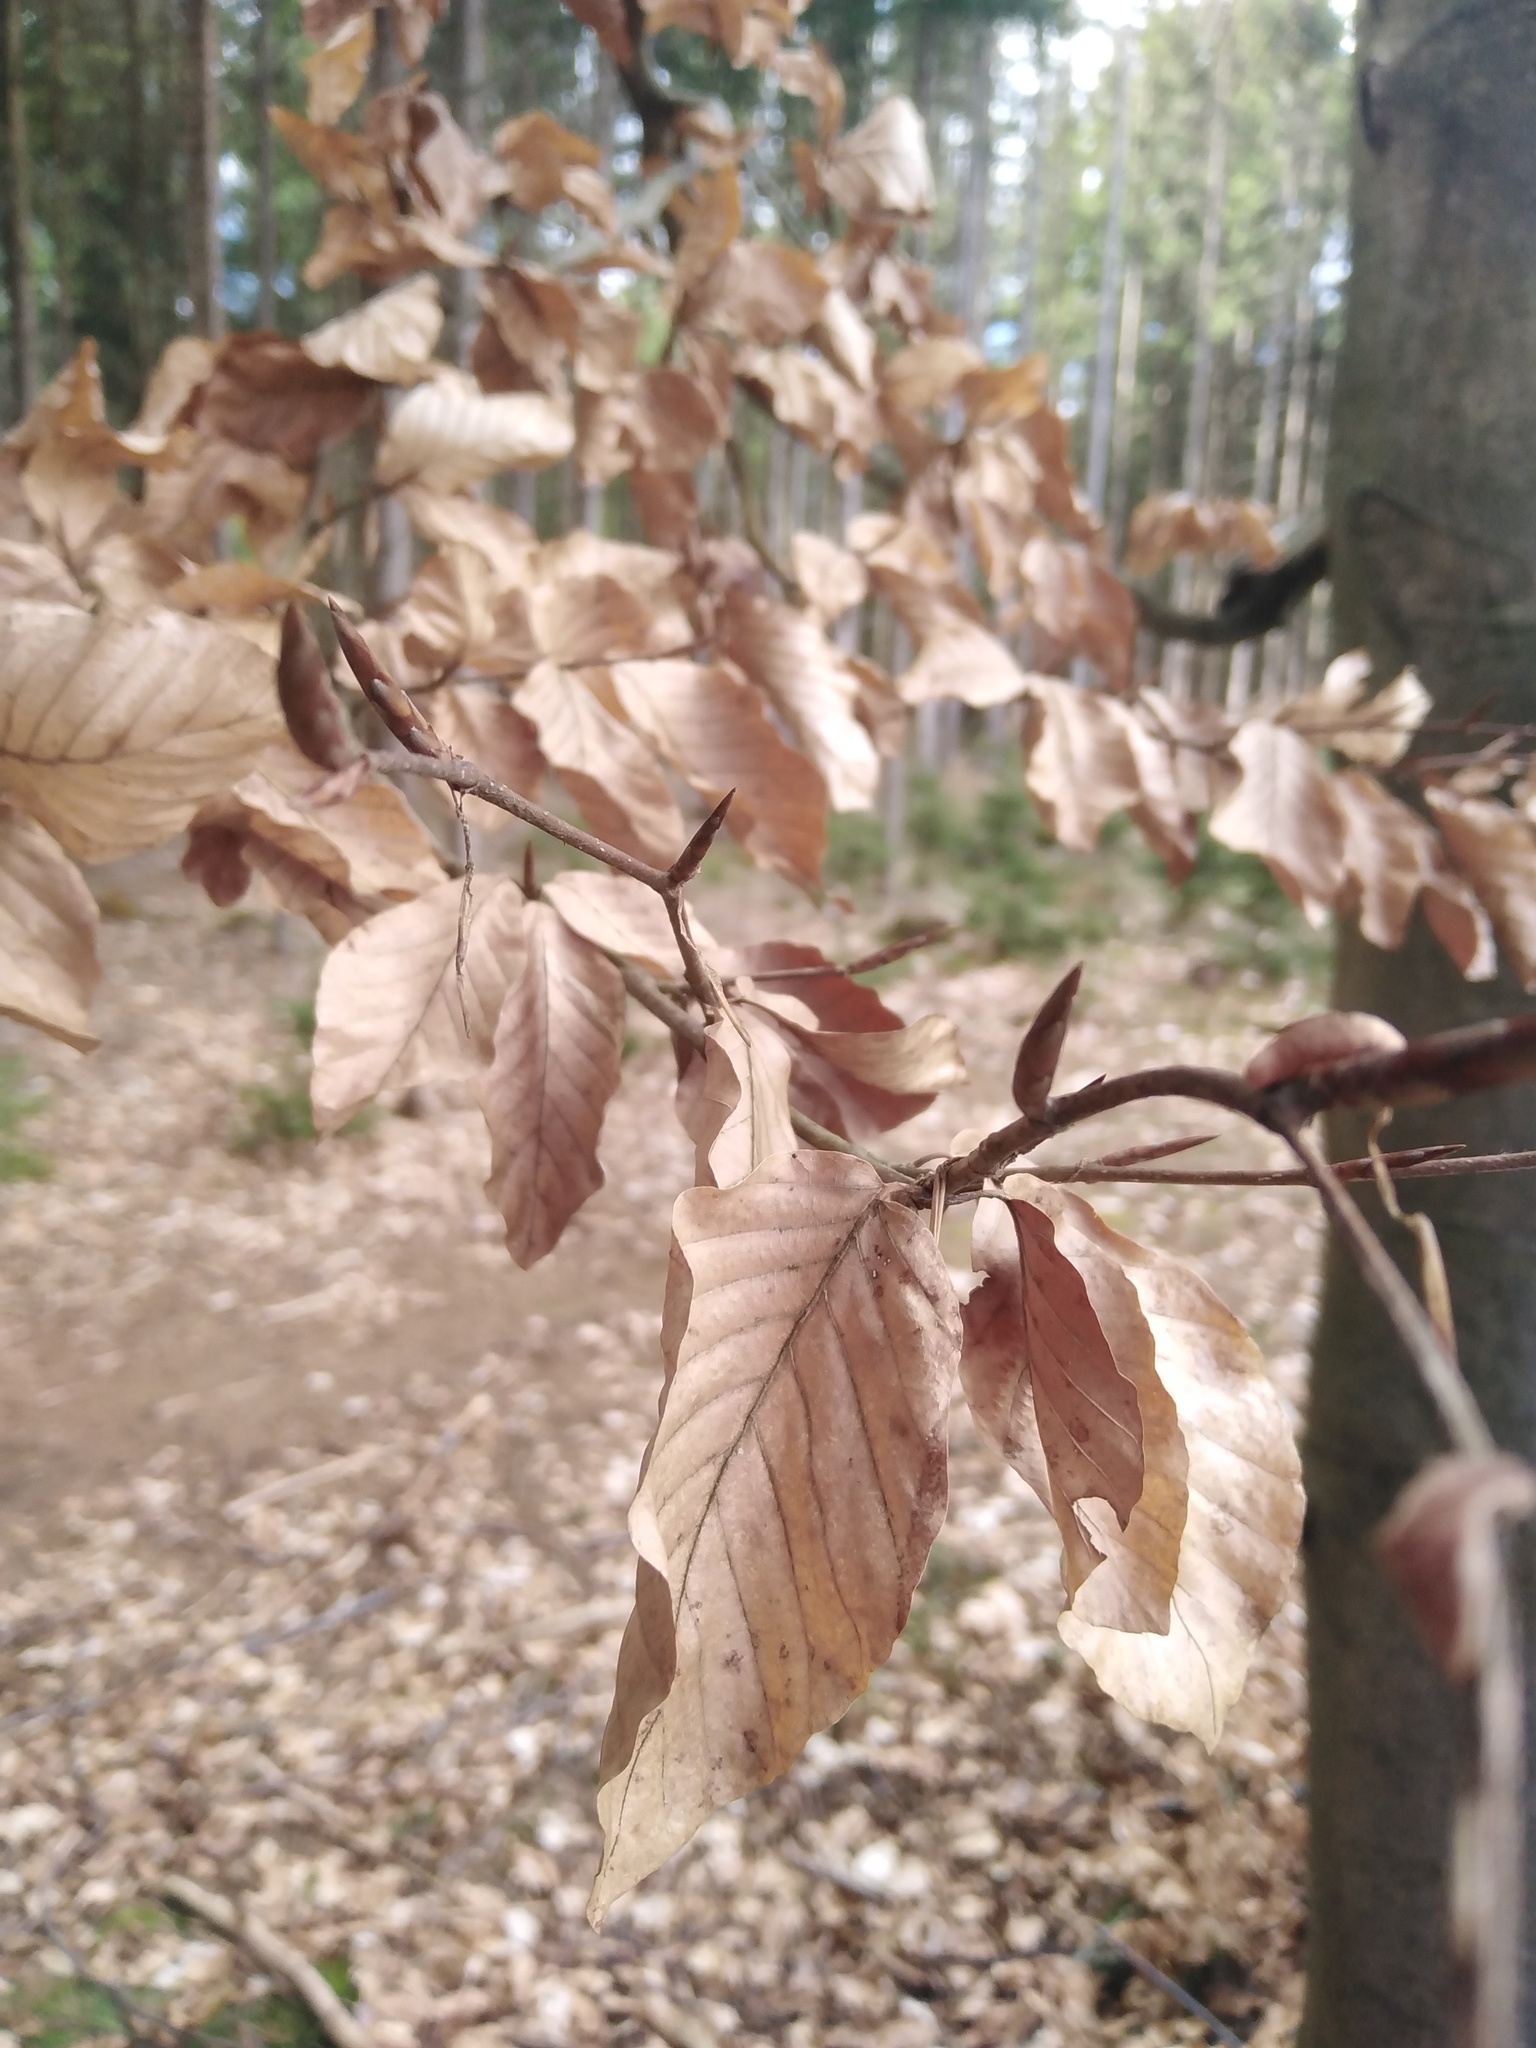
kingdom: Plantae
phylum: Tracheophyta
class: Magnoliopsida
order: Fagales
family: Fagaceae
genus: Fagus
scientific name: Fagus sylvatica
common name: Beech
